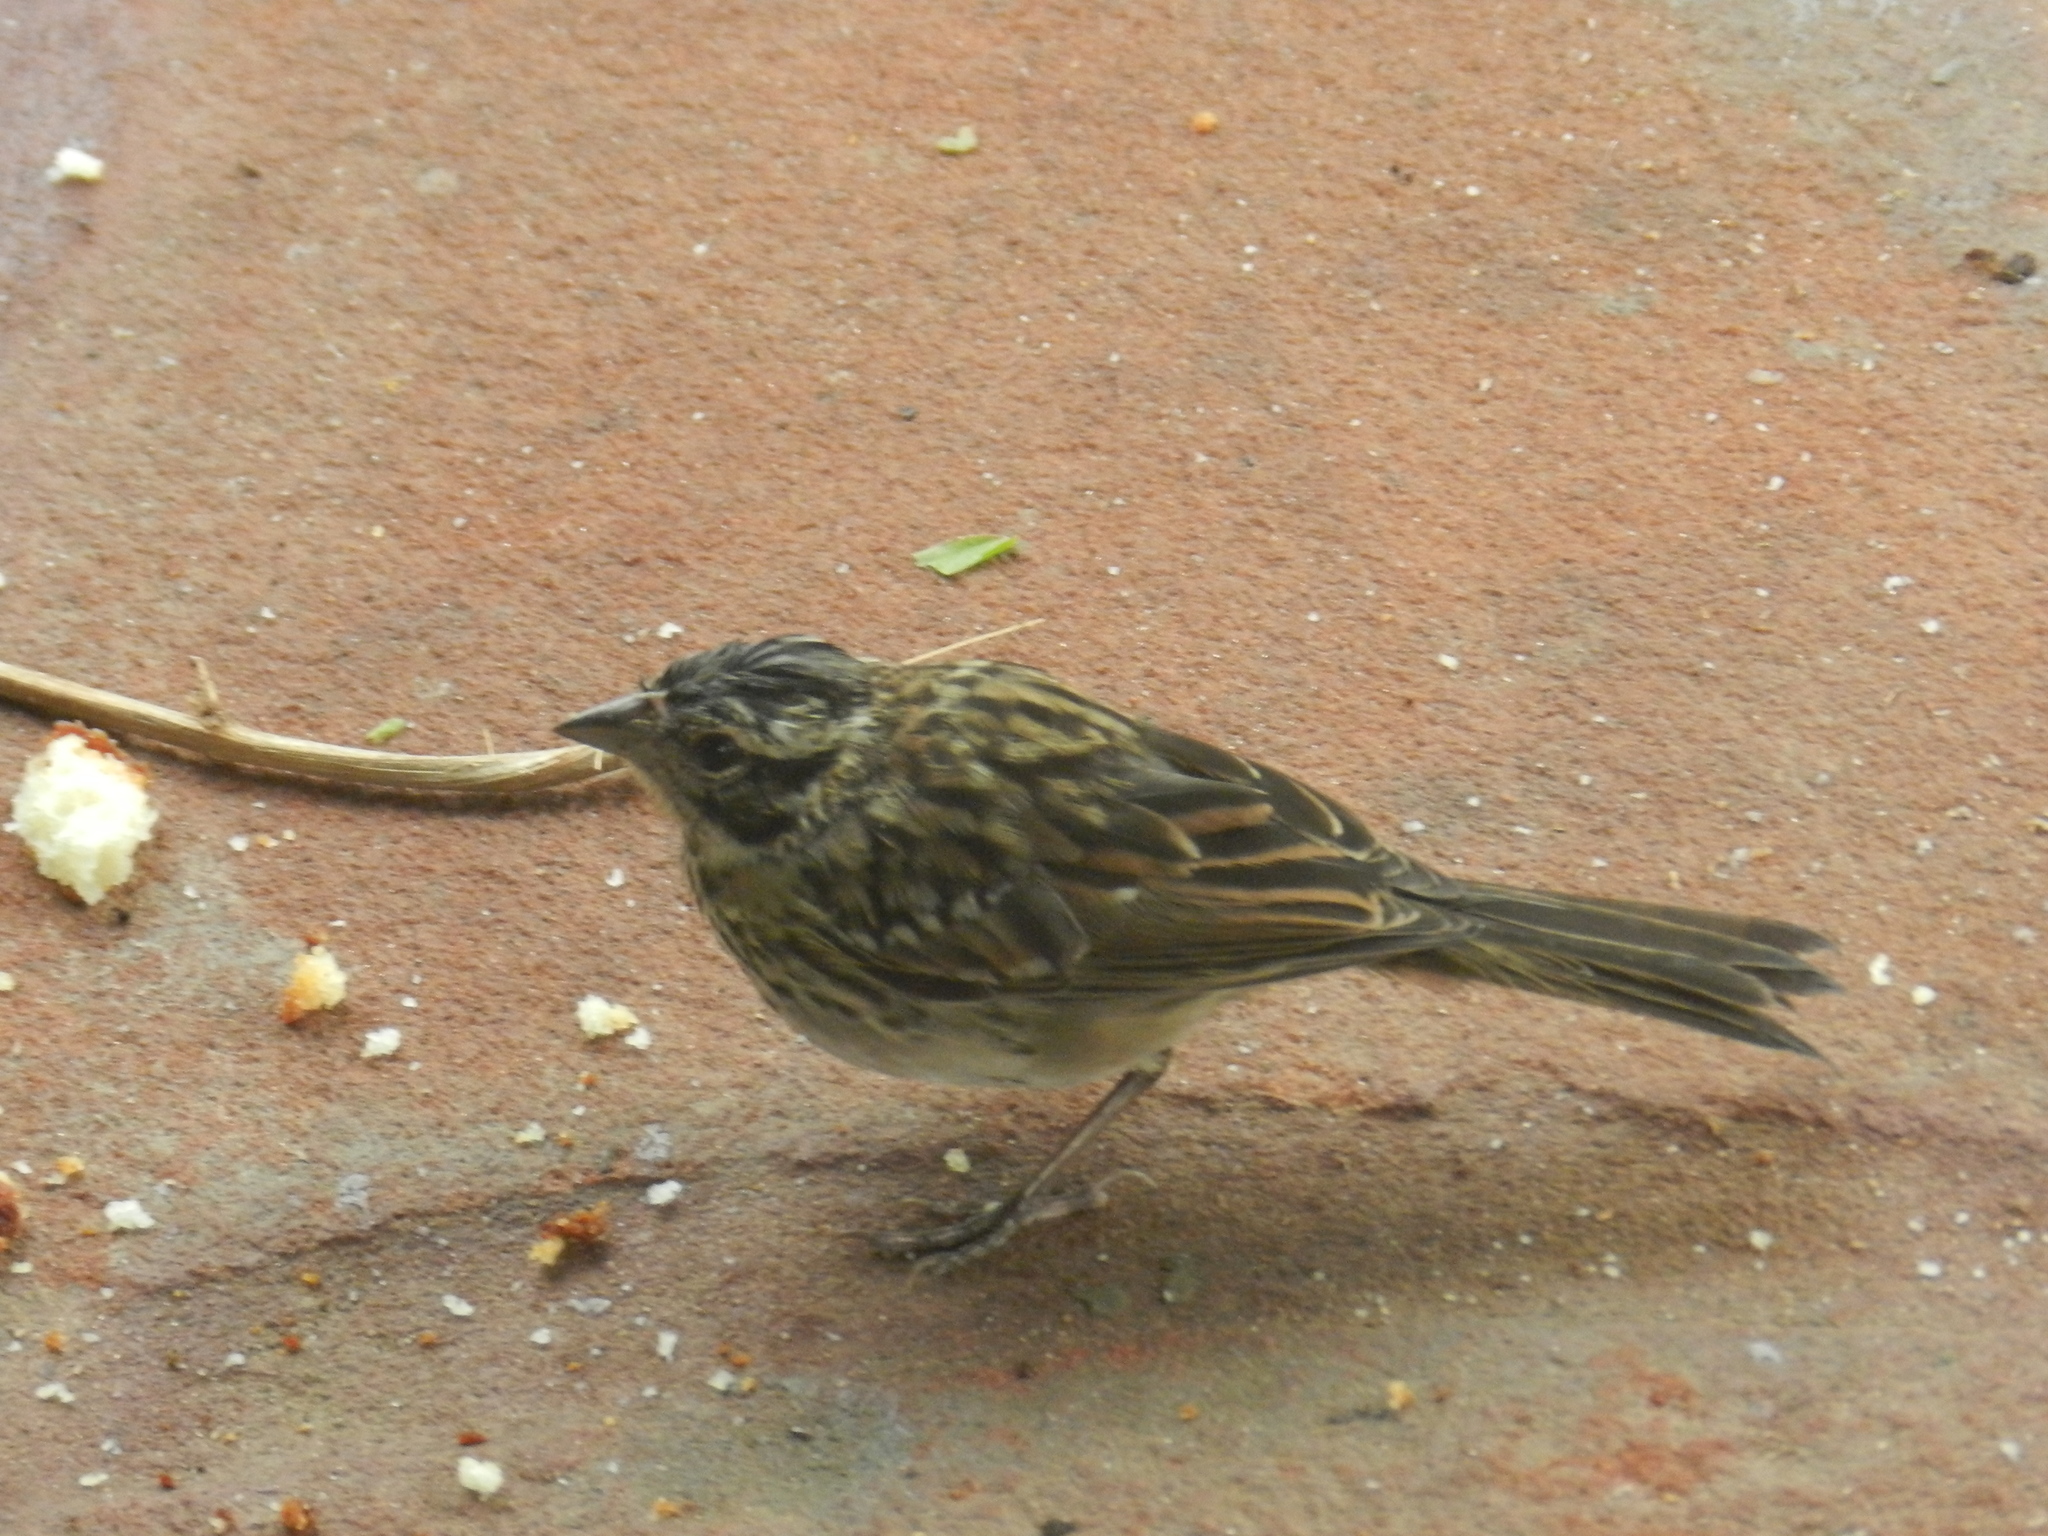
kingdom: Animalia
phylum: Chordata
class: Aves
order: Passeriformes
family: Passerellidae
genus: Zonotrichia
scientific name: Zonotrichia capensis
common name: Rufous-collared sparrow
